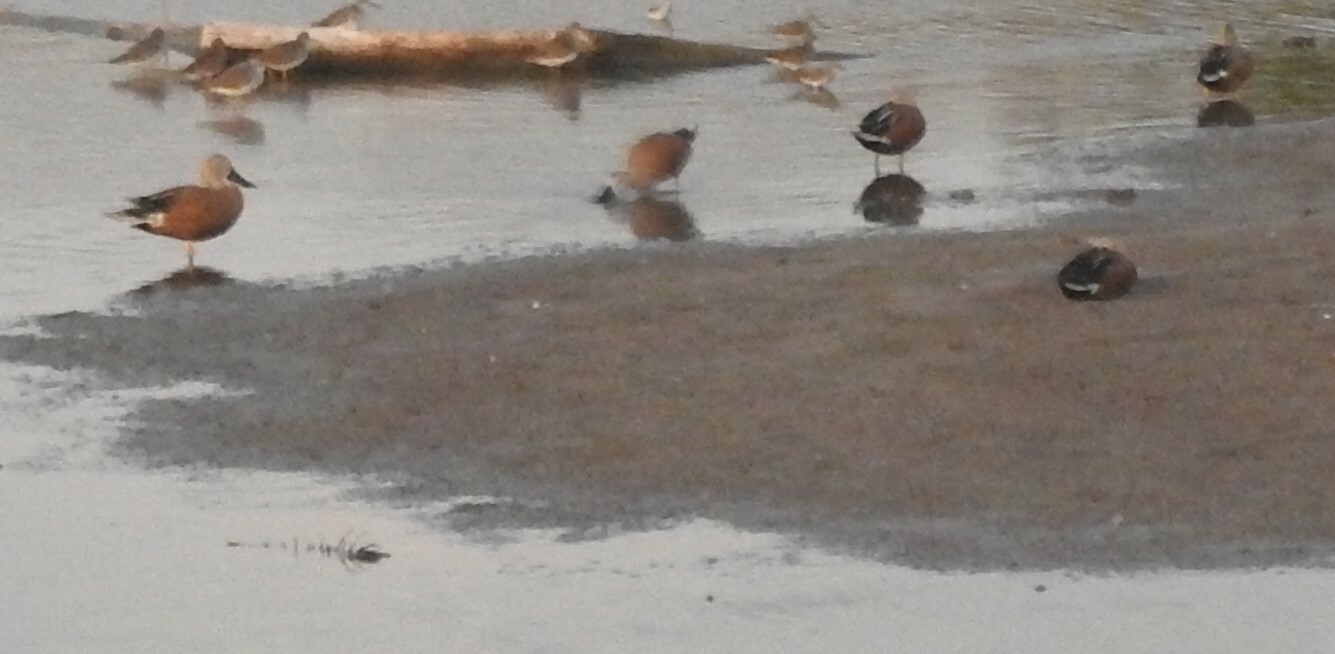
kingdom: Animalia
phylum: Chordata
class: Aves
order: Anseriformes
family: Anatidae
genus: Spatula
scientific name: Spatula platalea
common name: Red shoveler
